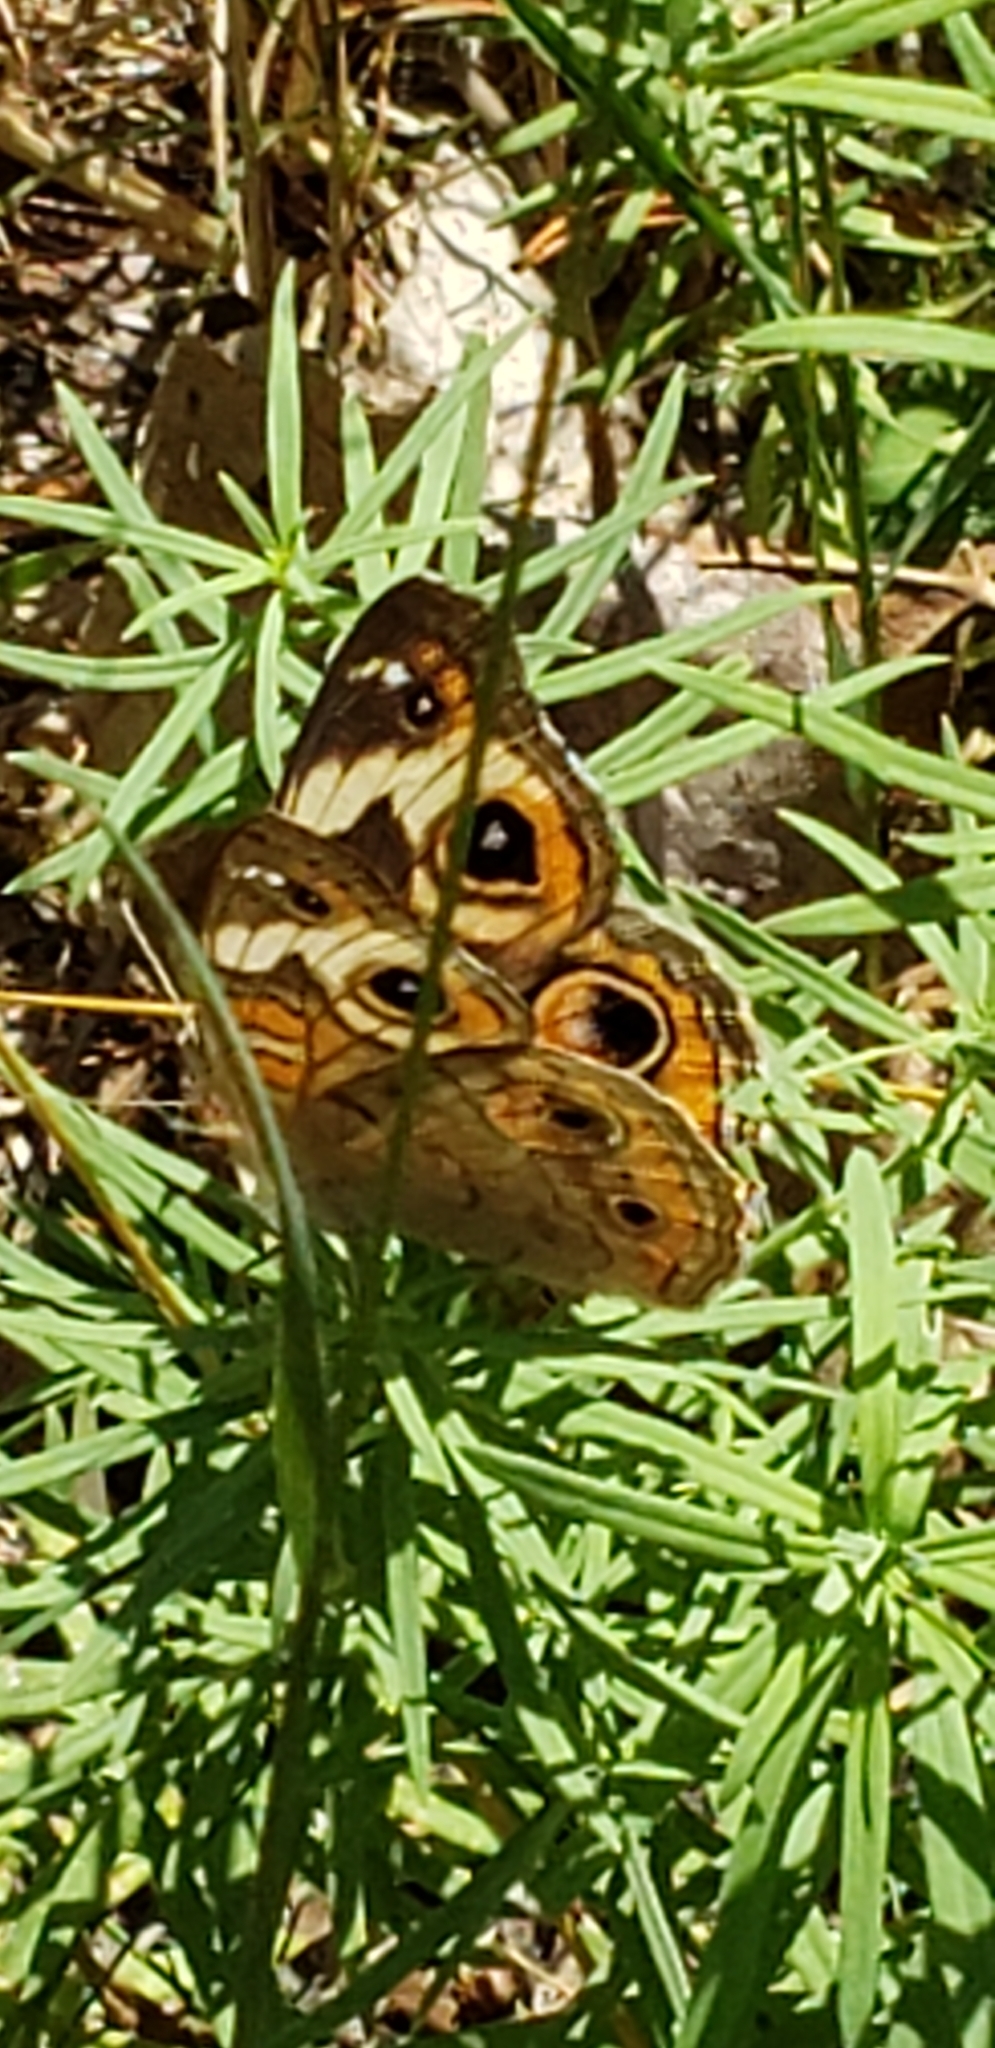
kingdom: Animalia
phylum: Arthropoda
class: Insecta
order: Lepidoptera
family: Nymphalidae
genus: Junonia
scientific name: Junonia coenia
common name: Common buckeye
